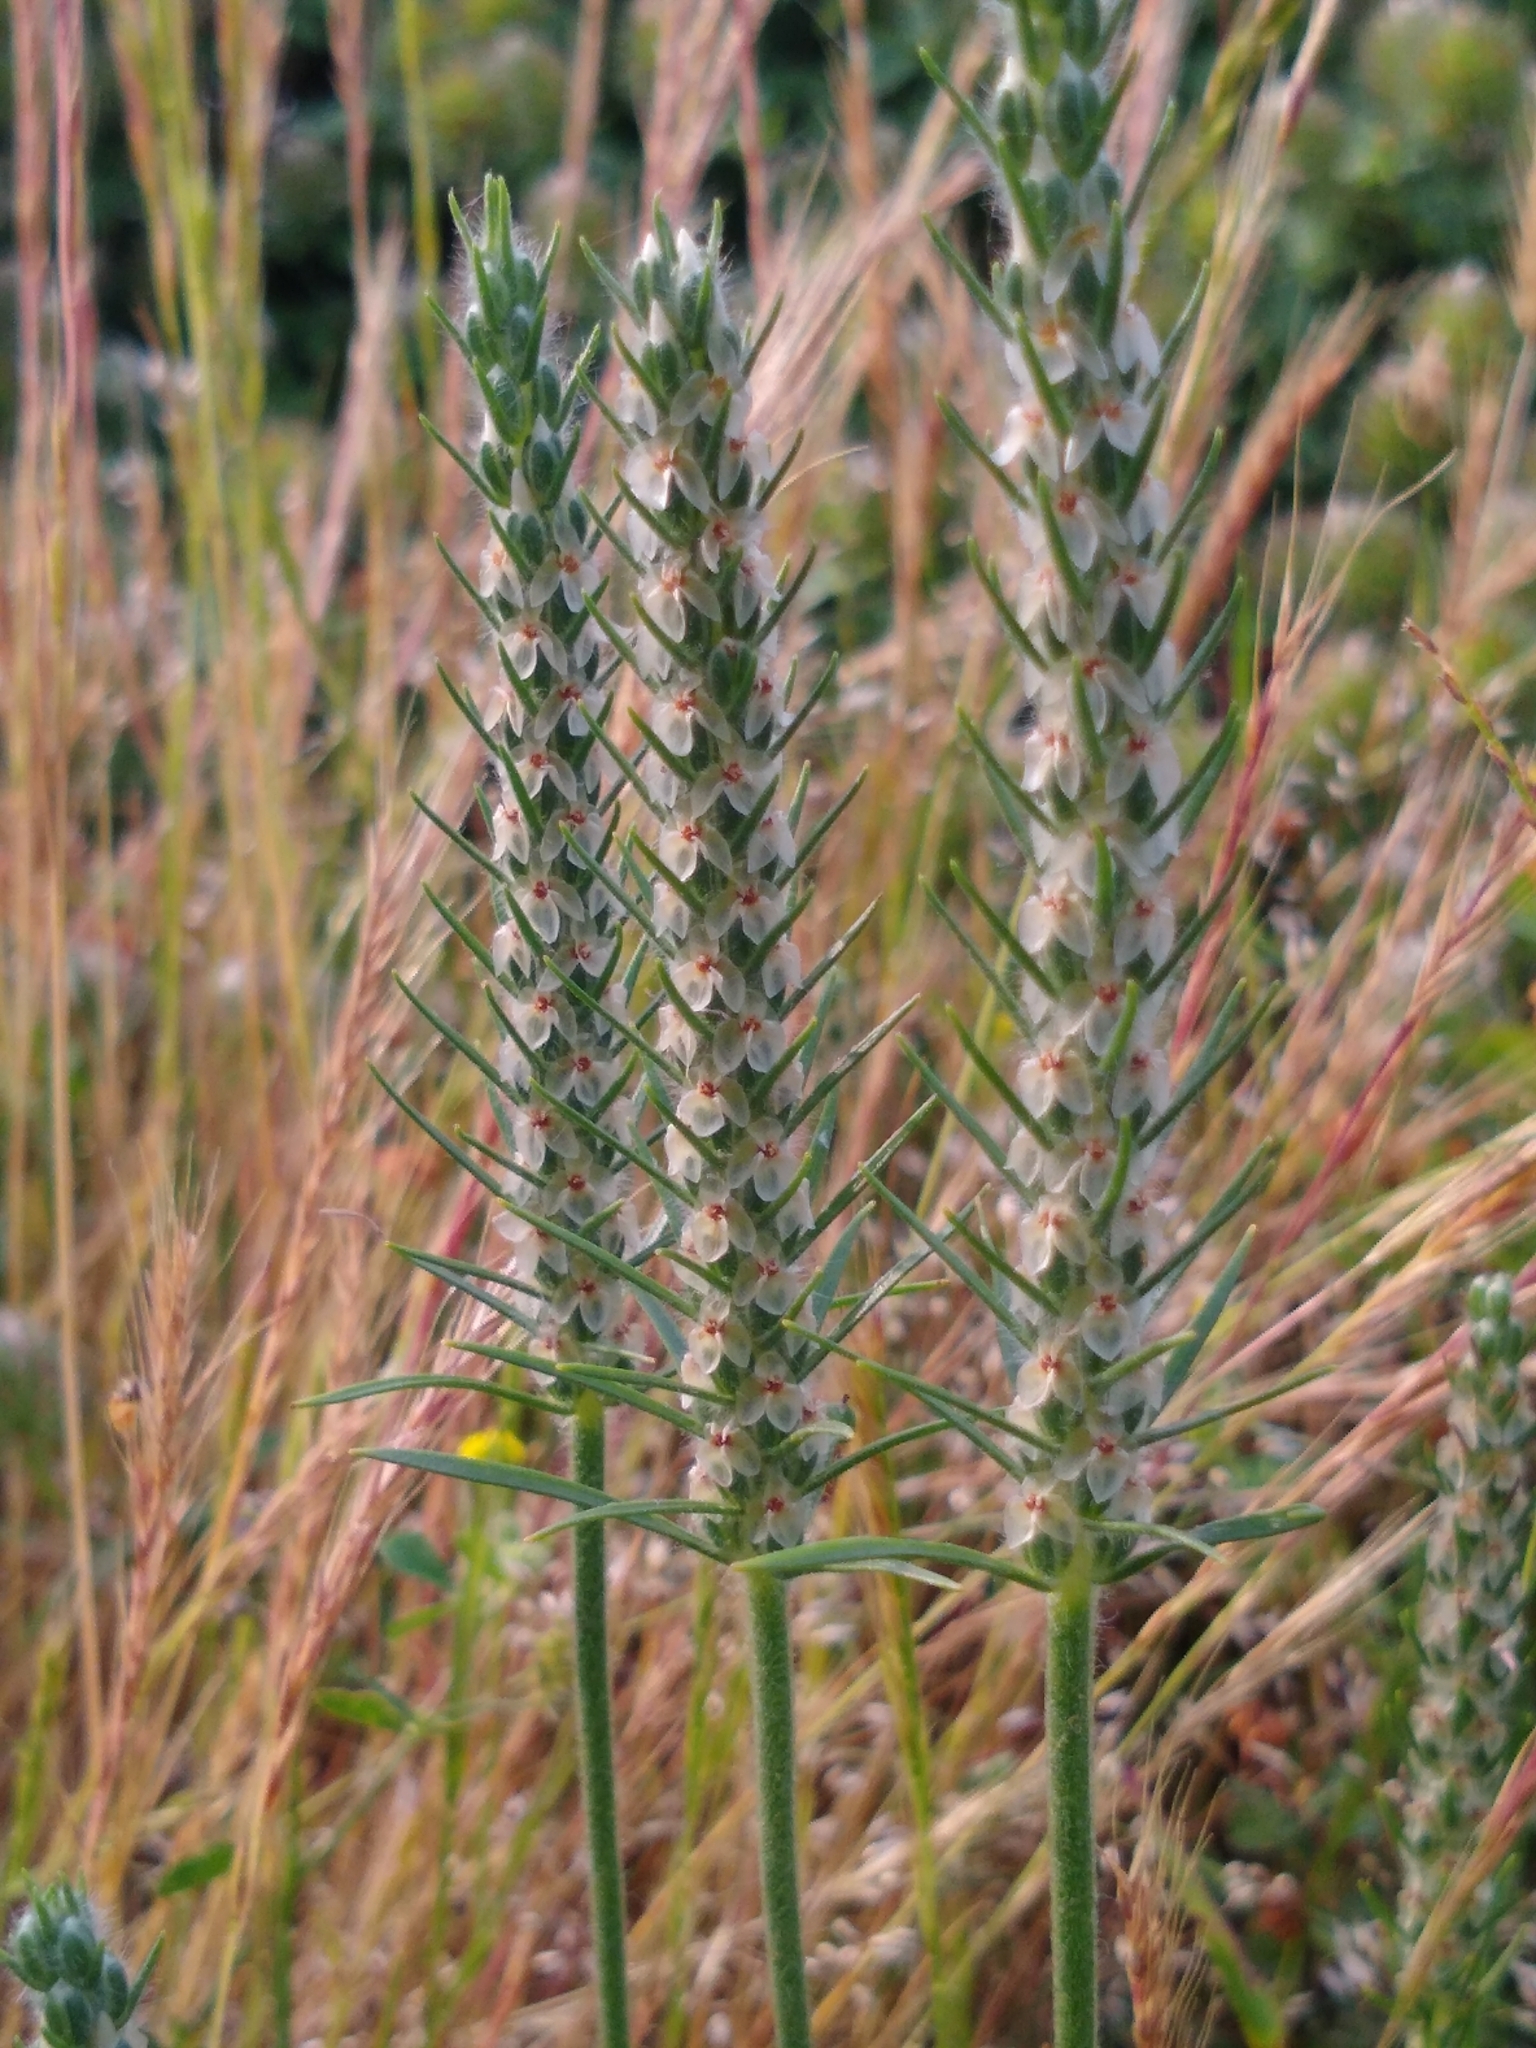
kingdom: Plantae
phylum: Tracheophyta
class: Magnoliopsida
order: Lamiales
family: Plantaginaceae
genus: Plantago
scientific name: Plantago aristata
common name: Bracted plantain
